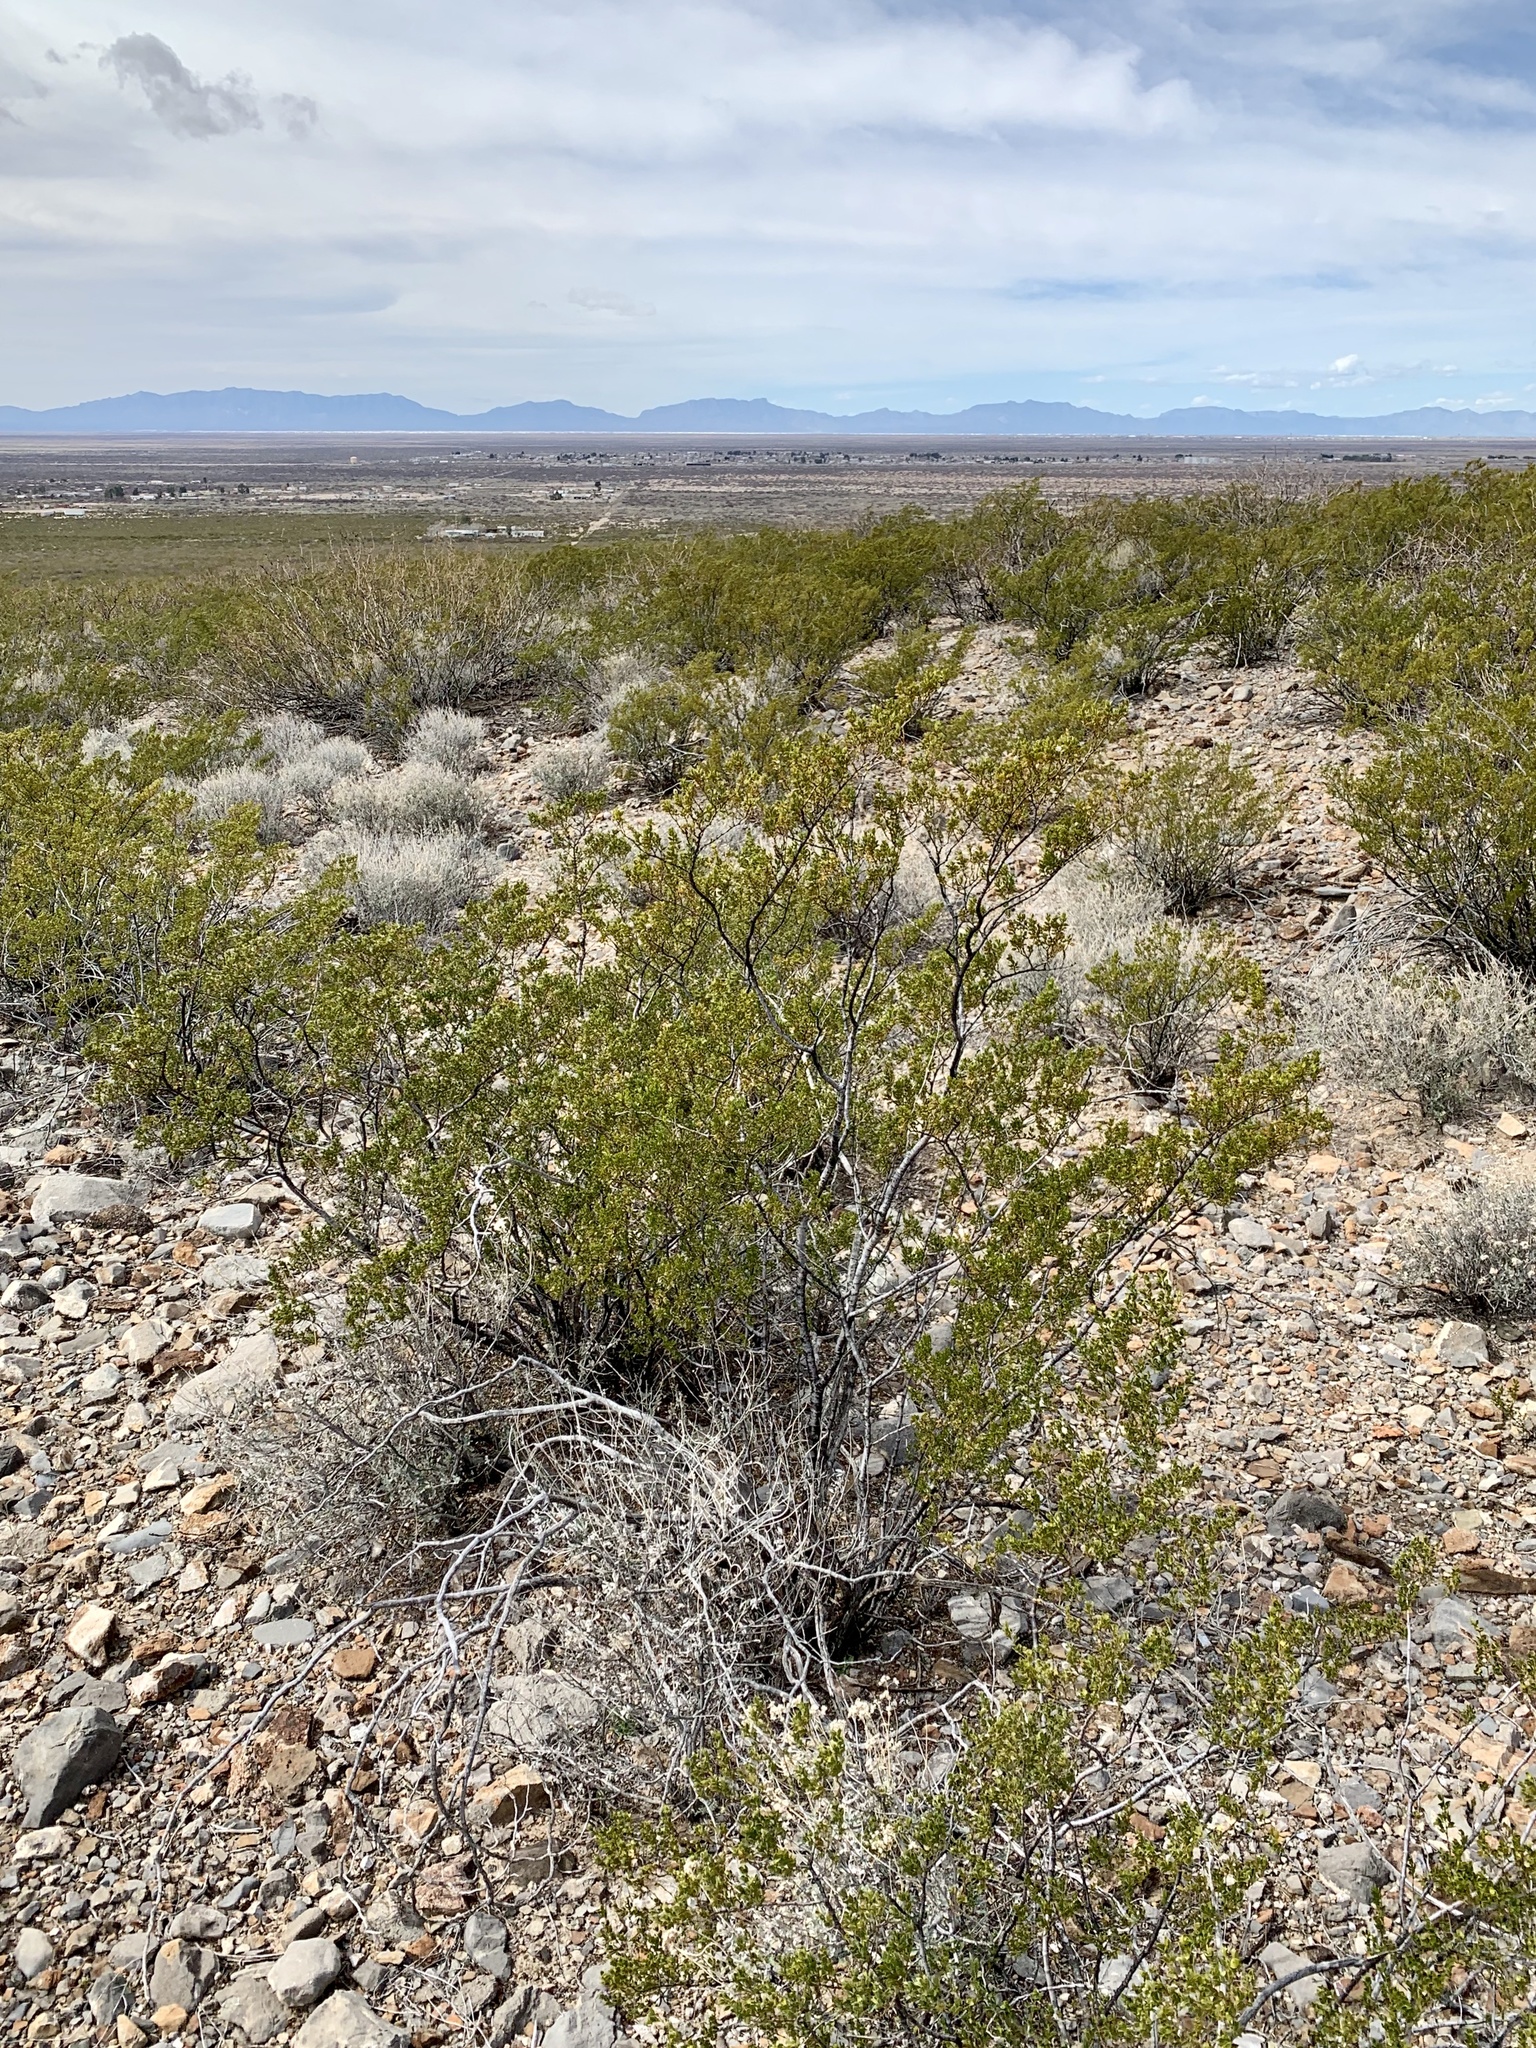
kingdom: Plantae
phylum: Tracheophyta
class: Magnoliopsida
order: Zygophyllales
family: Zygophyllaceae
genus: Larrea
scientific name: Larrea tridentata
